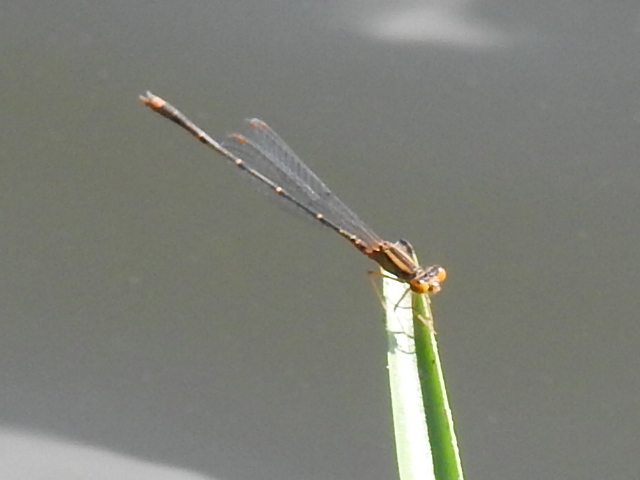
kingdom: Animalia
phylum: Arthropoda
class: Insecta
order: Odonata
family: Coenagrionidae
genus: Enallagma
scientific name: Enallagma signatum
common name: Orange bluet
